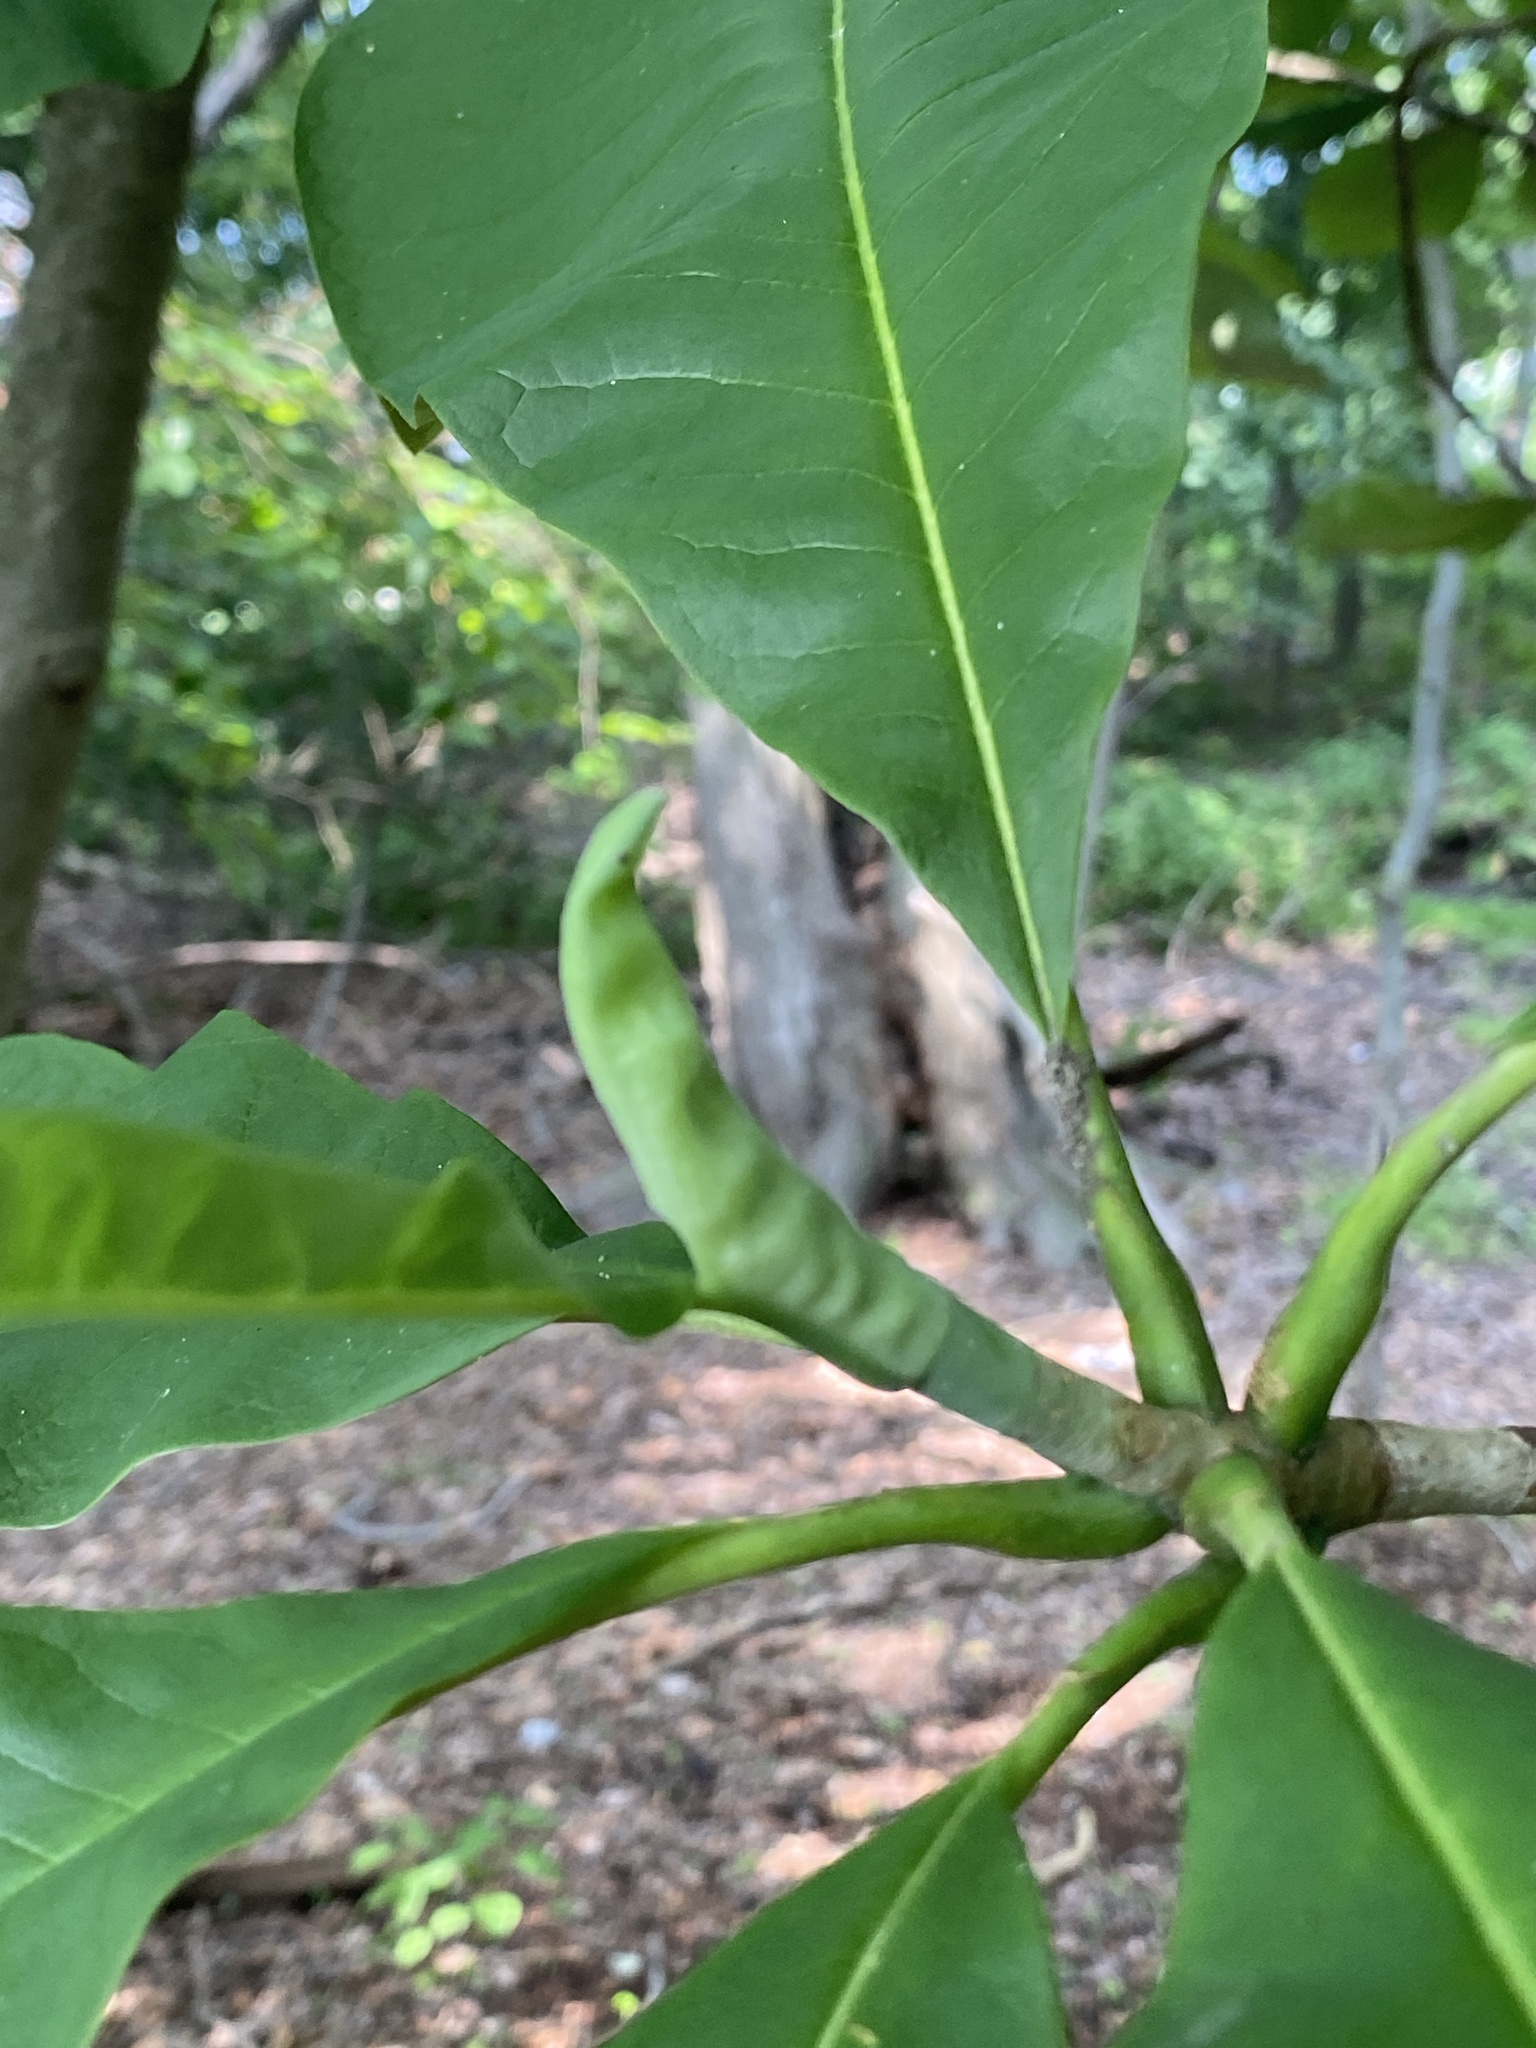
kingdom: Plantae
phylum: Tracheophyta
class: Magnoliopsida
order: Magnoliales
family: Magnoliaceae
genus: Magnolia
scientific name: Magnolia tripetala
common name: Umbrella magnolia
